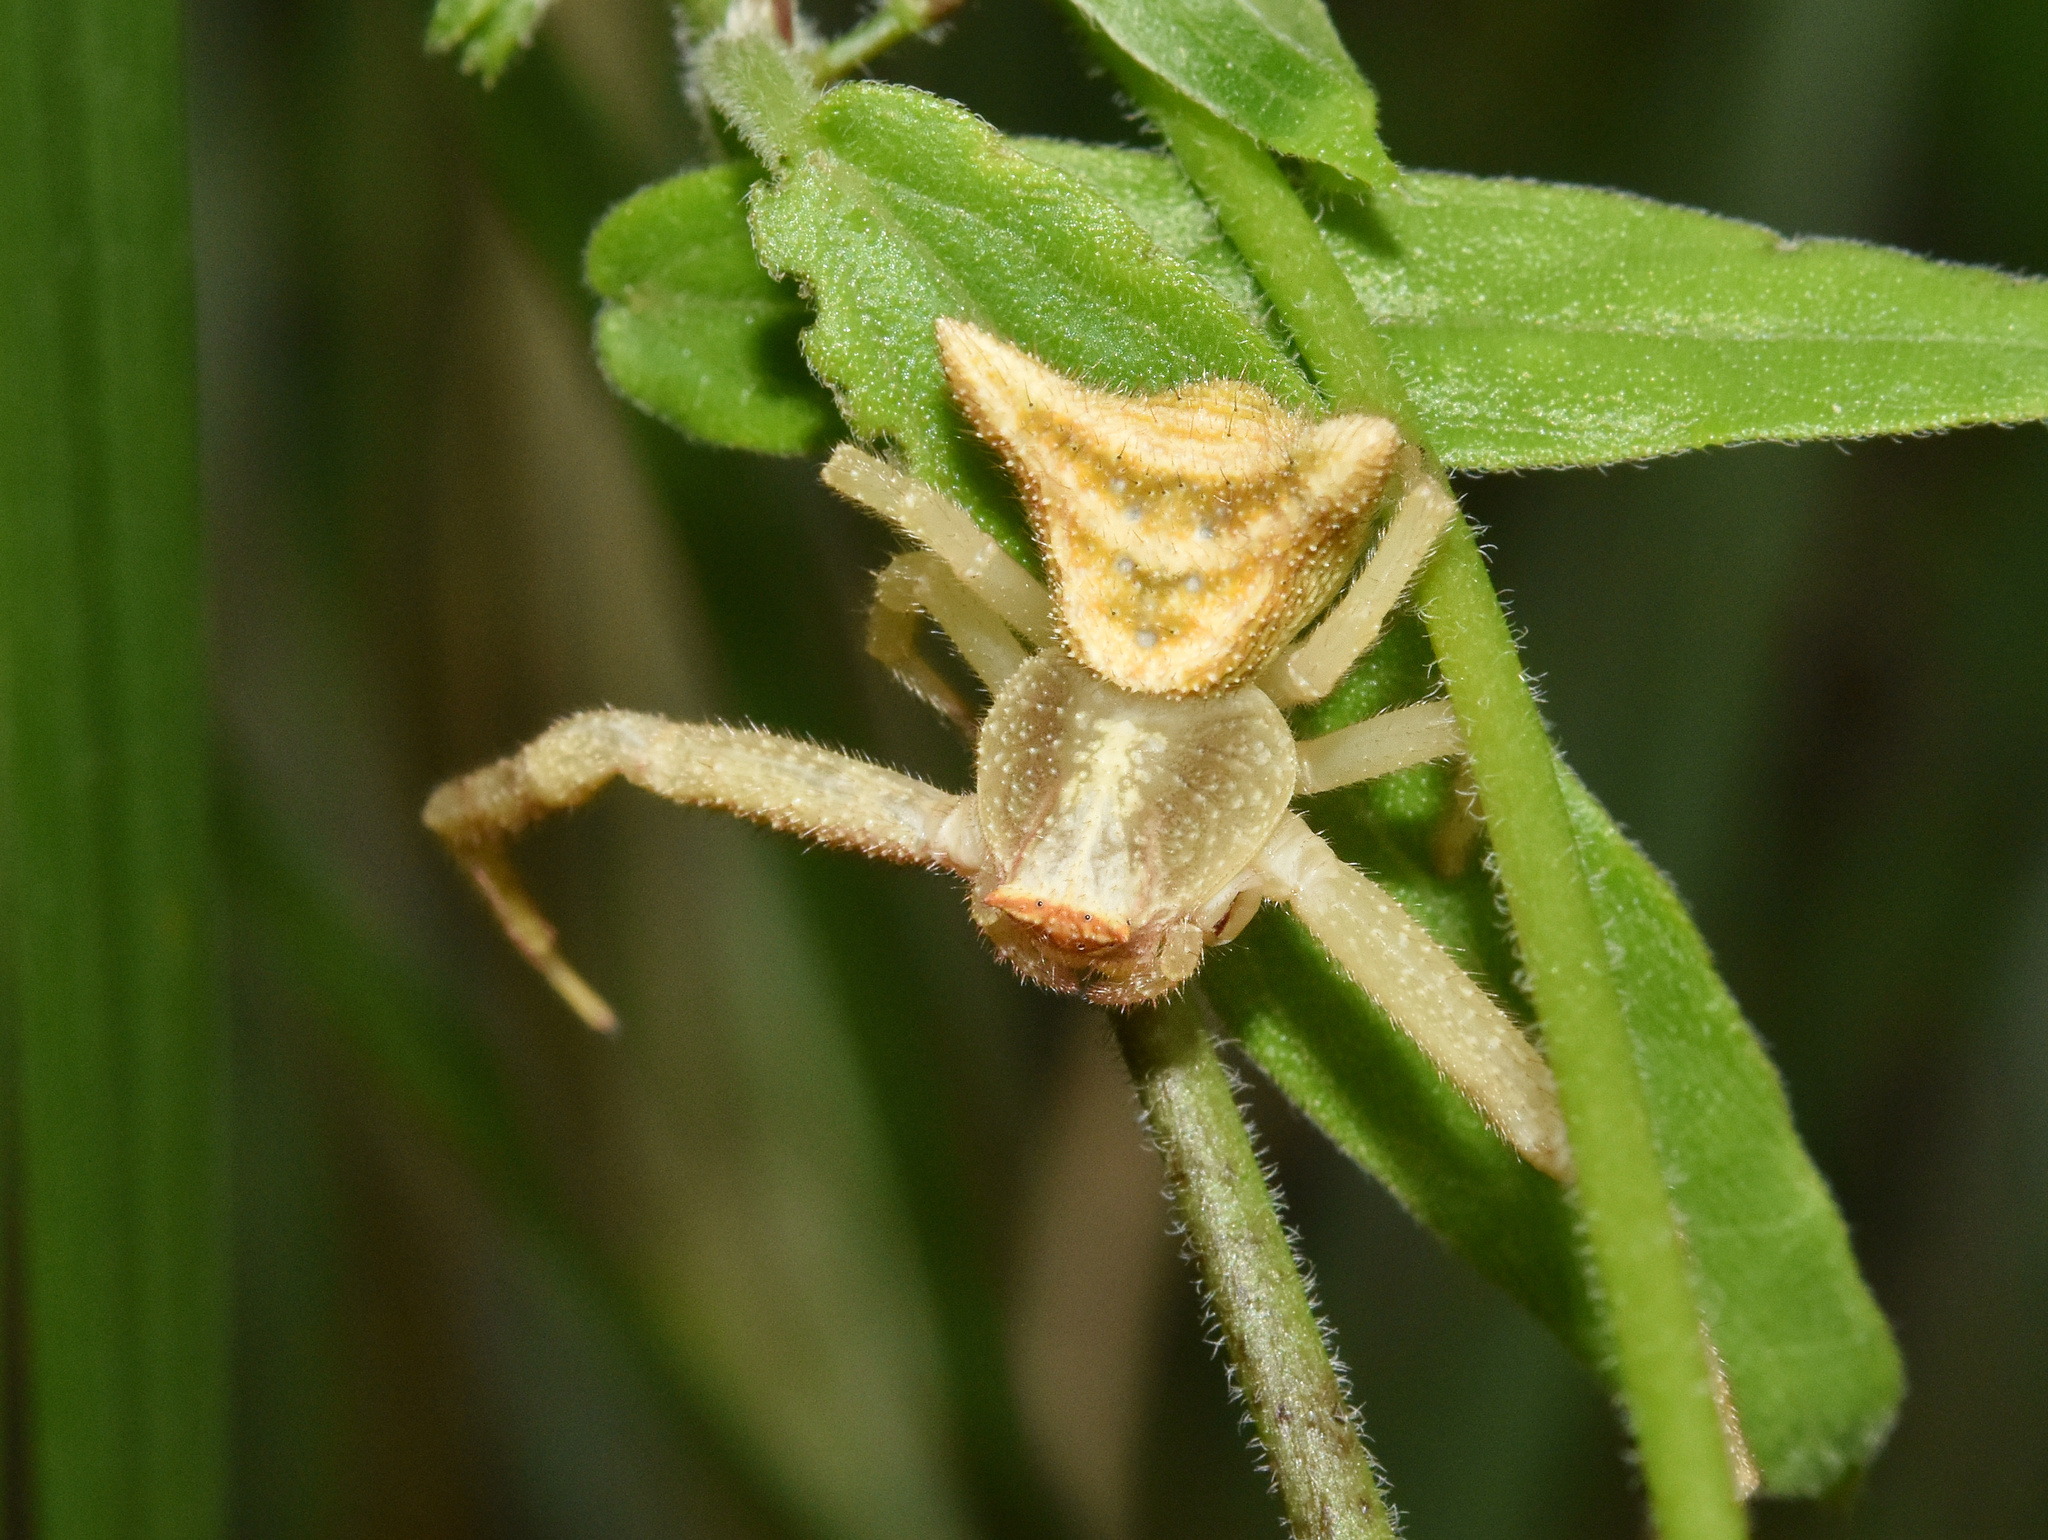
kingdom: Animalia
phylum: Arthropoda
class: Arachnida
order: Araneae
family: Thomisidae
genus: Thomisus
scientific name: Thomisus granulatus
